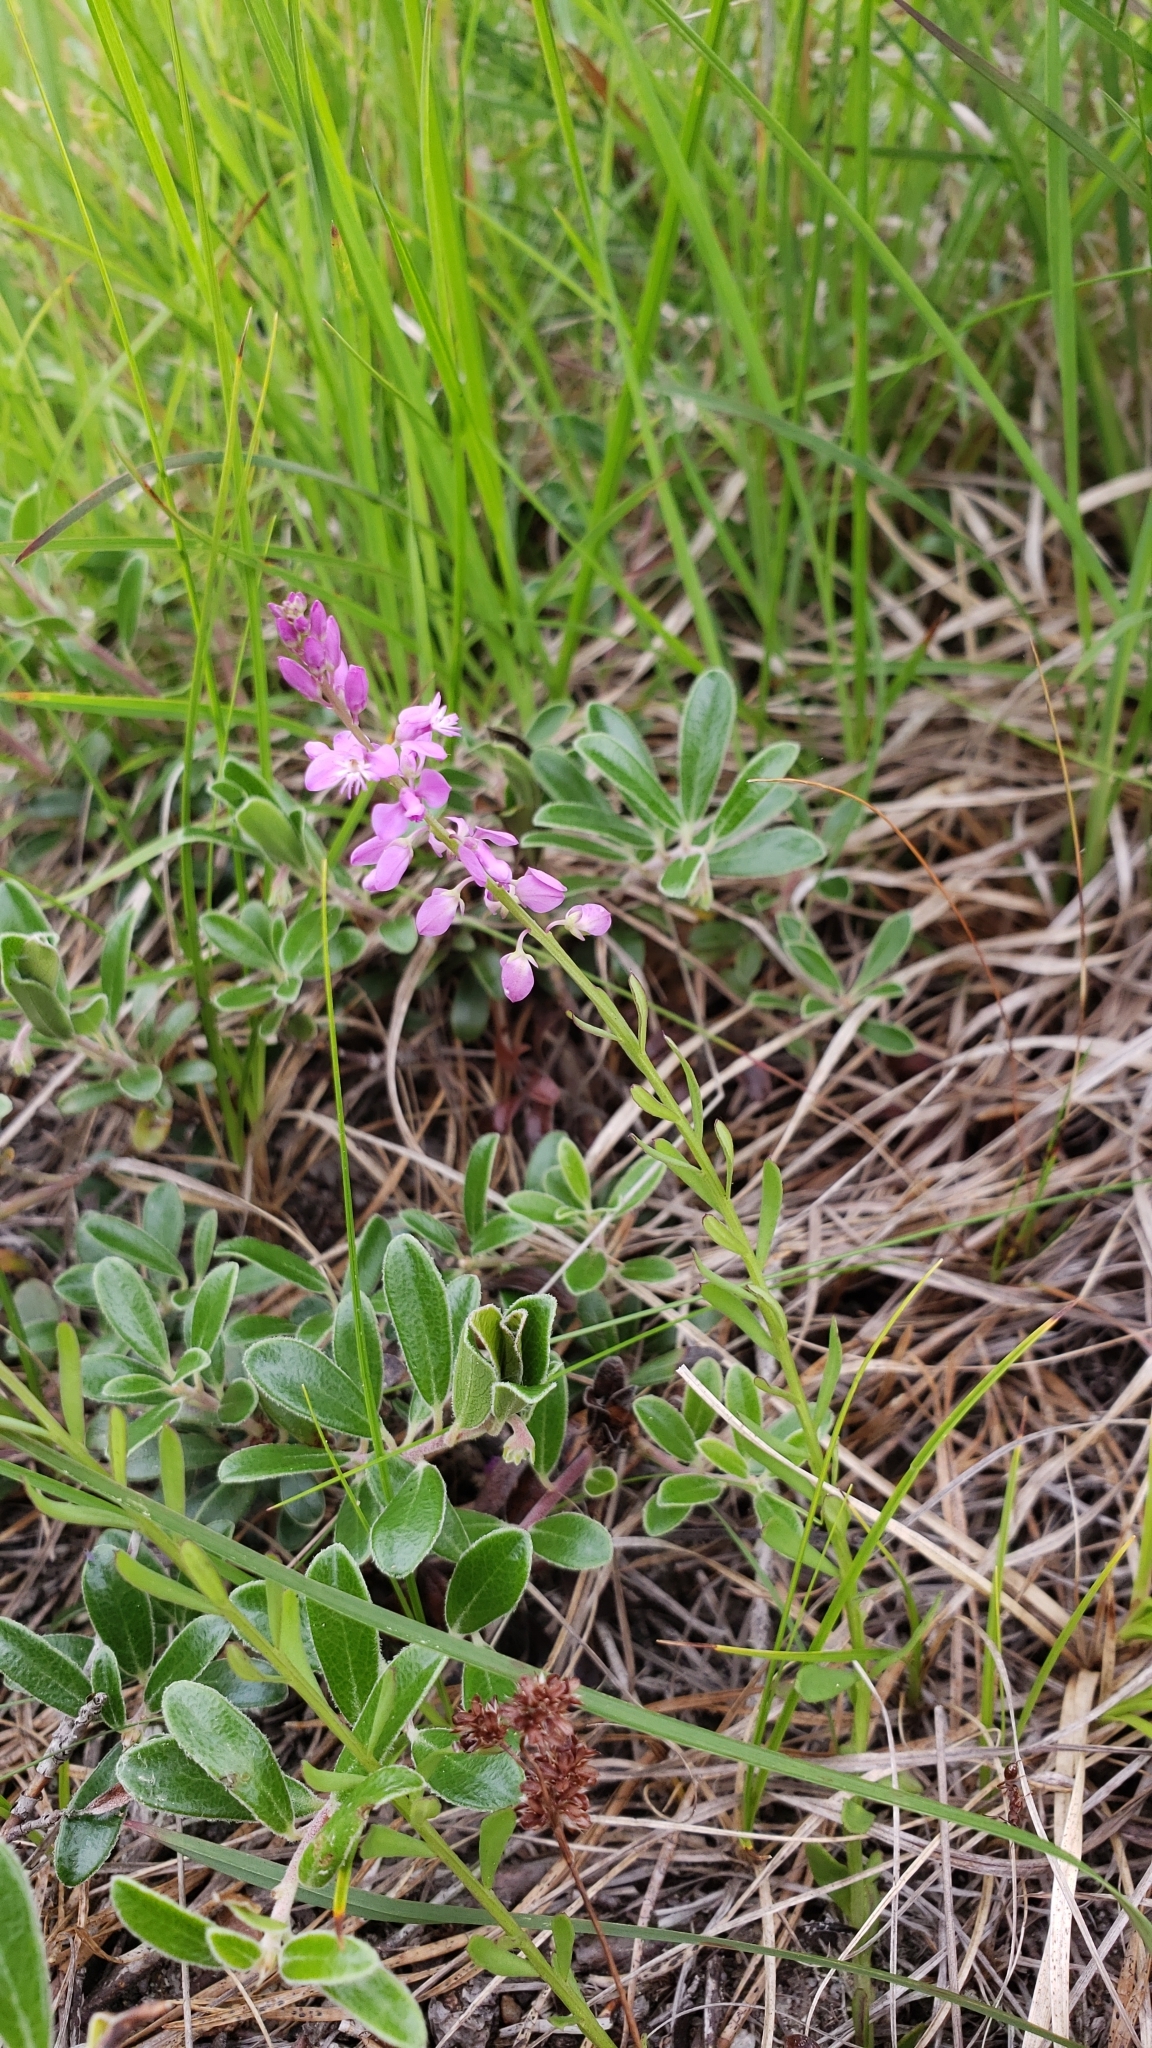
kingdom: Plantae
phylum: Tracheophyta
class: Magnoliopsida
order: Fabales
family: Polygalaceae
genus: Polygala
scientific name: Polygala polygama
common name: Bitter milkwort
